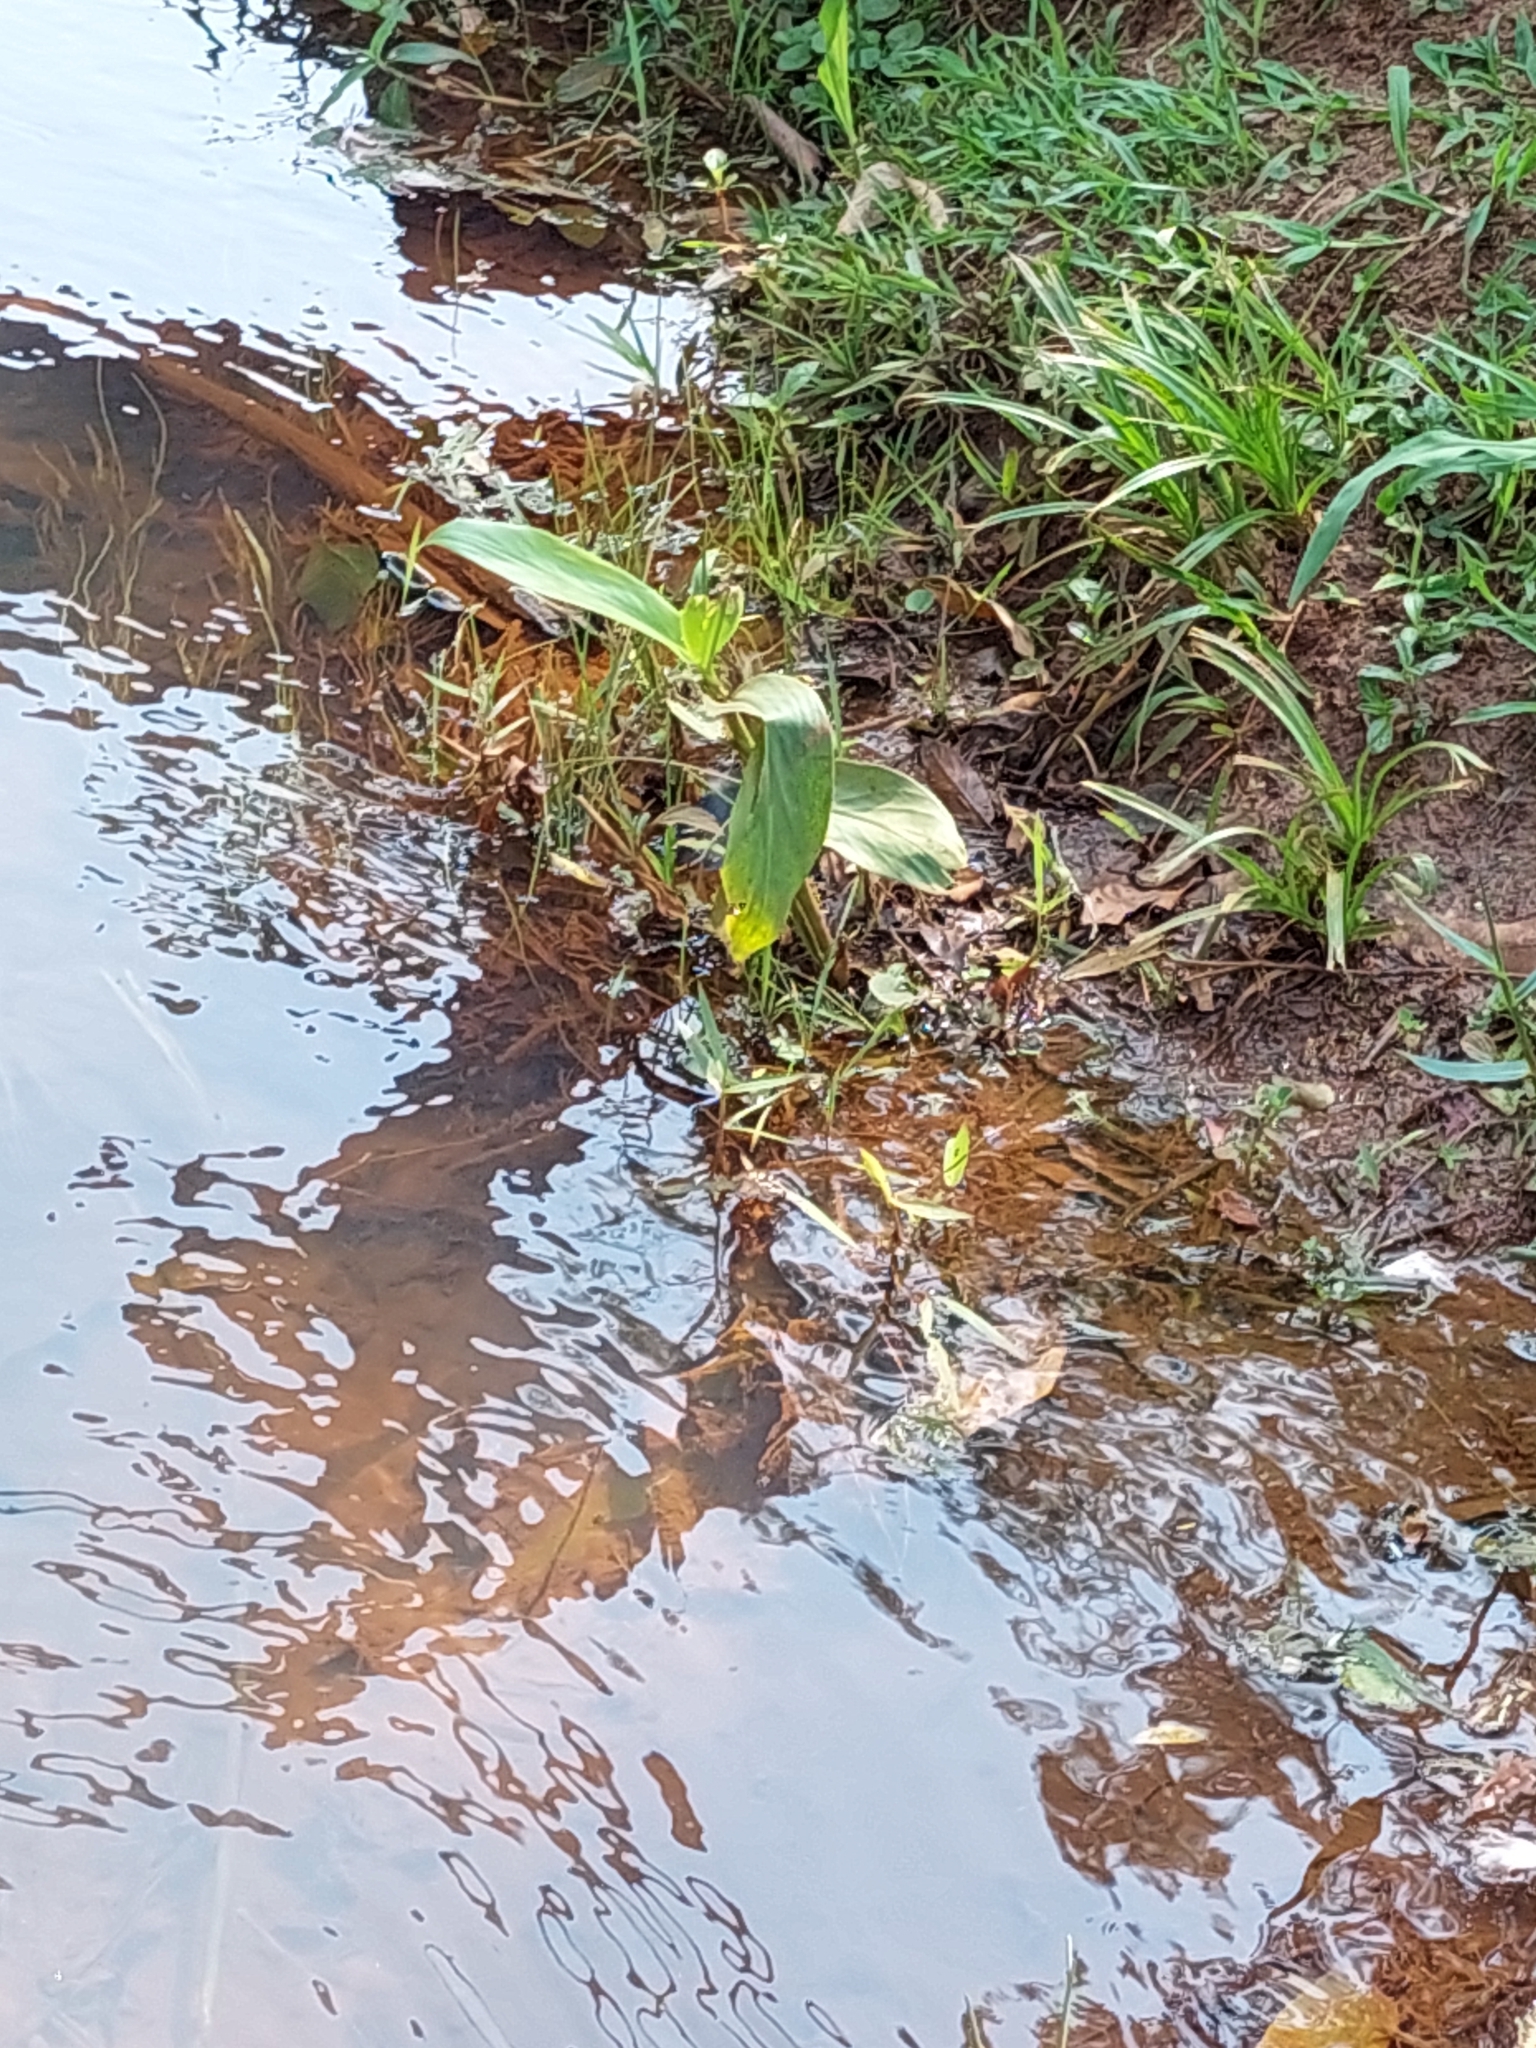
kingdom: Plantae
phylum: Tracheophyta
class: Liliopsida
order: Zingiberales
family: Zingiberaceae
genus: Hedychium
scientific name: Hedychium coronarium
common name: White garland-lily
